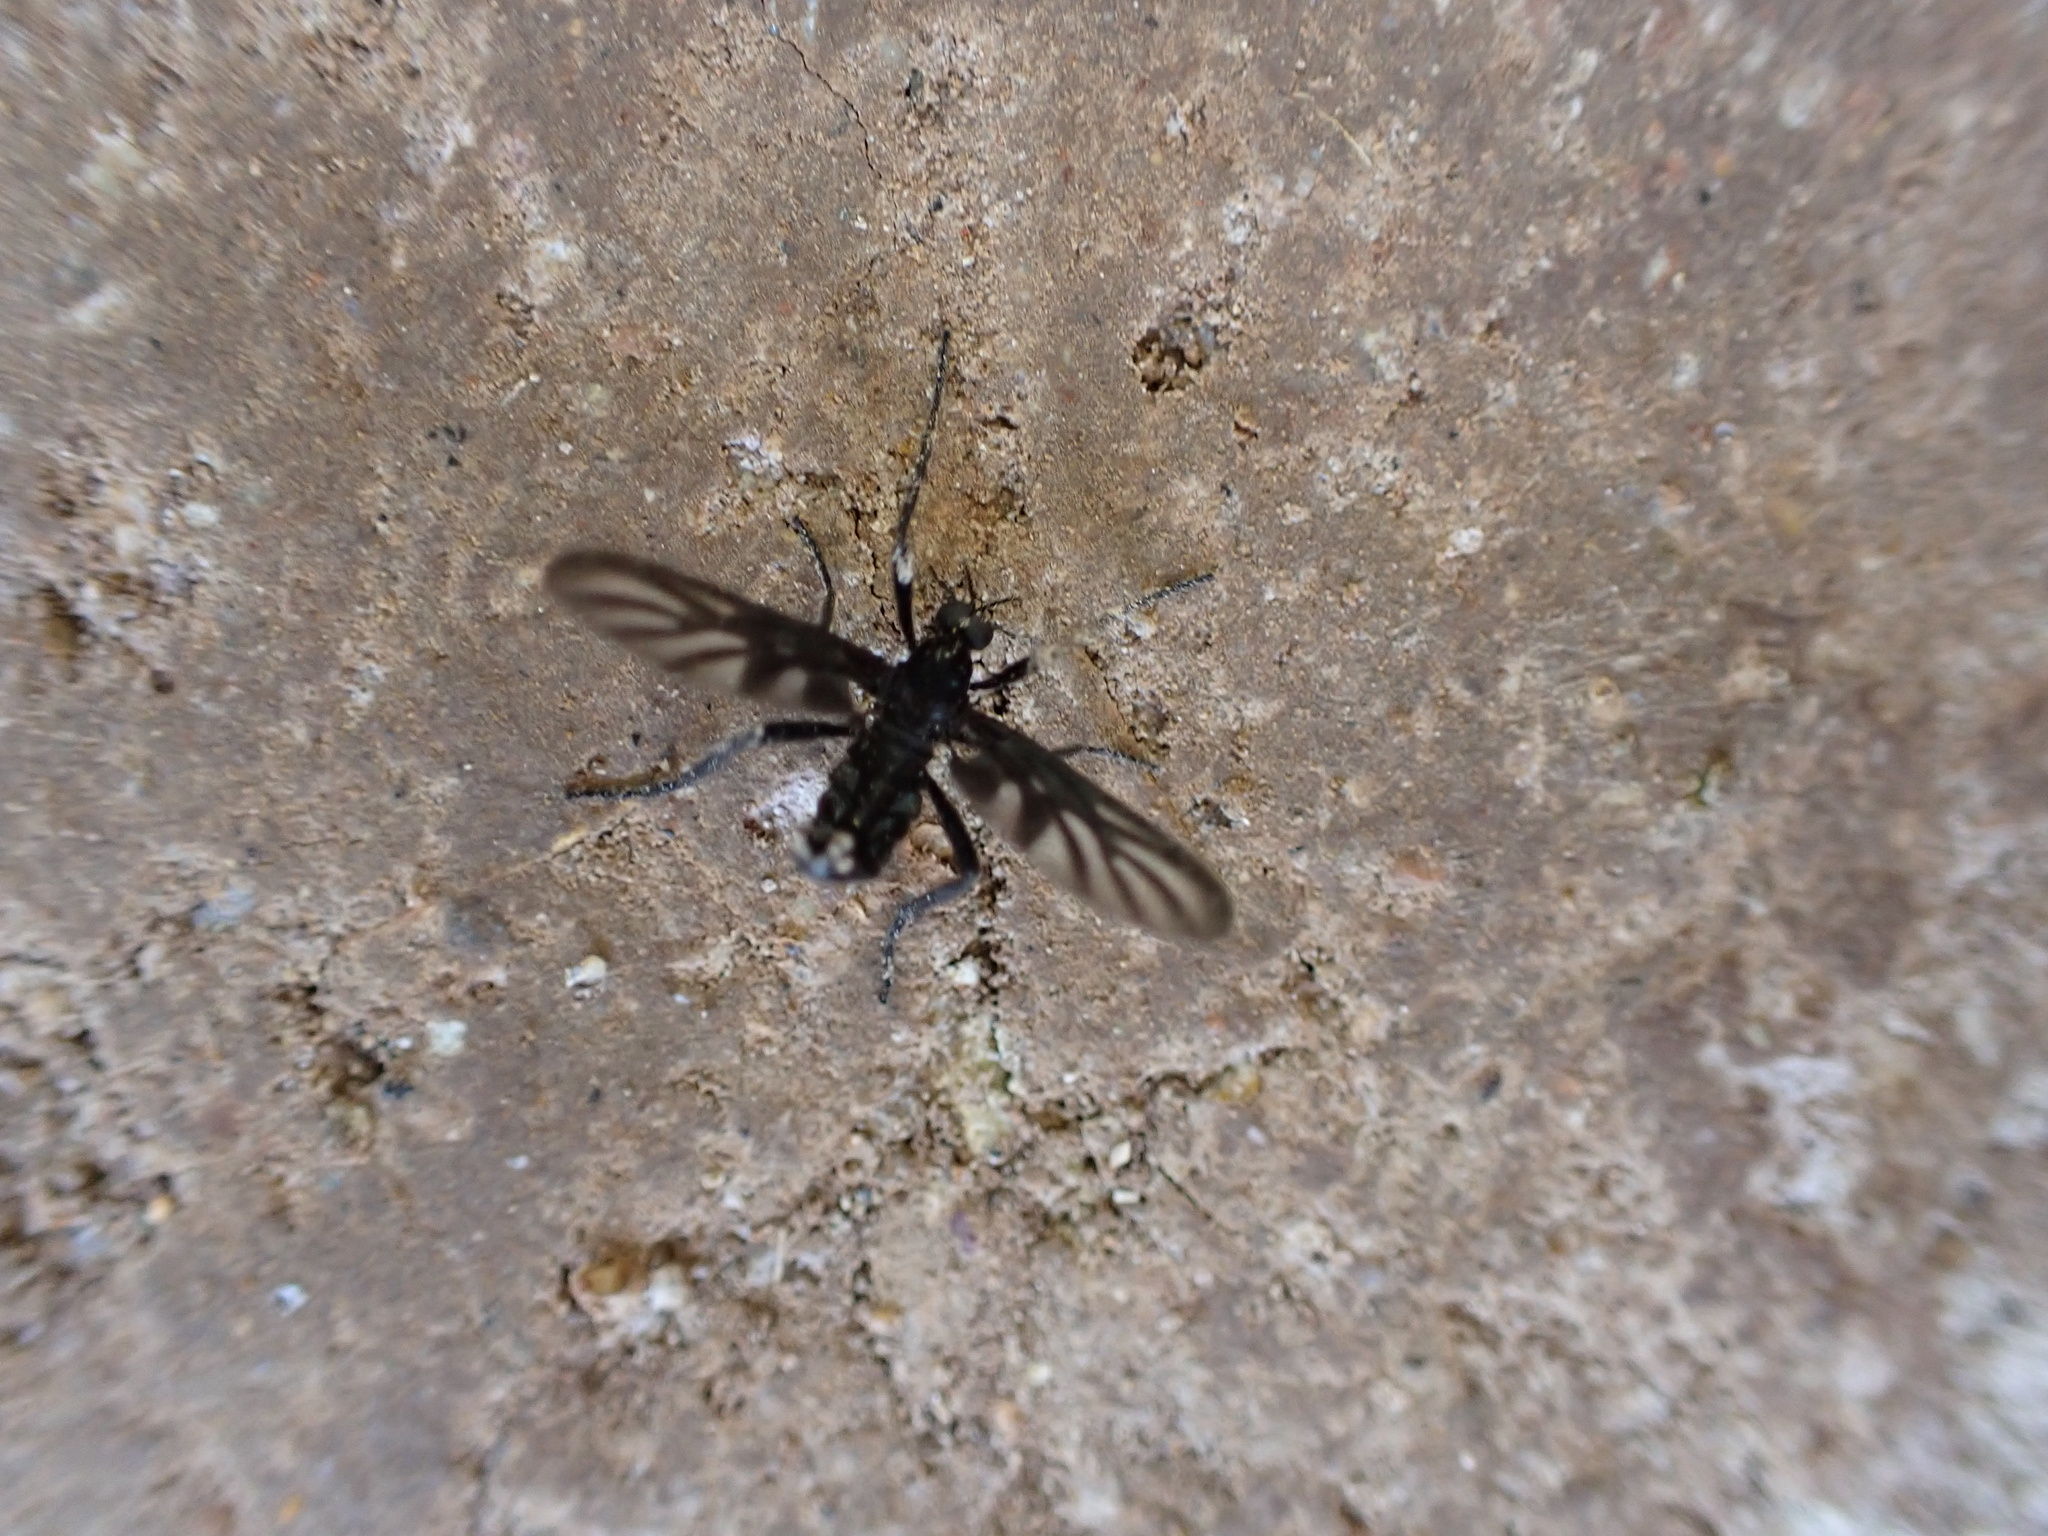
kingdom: Animalia
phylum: Arthropoda
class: Insecta
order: Diptera
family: Bibionidae
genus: Plecia
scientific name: Plecia plagiata
